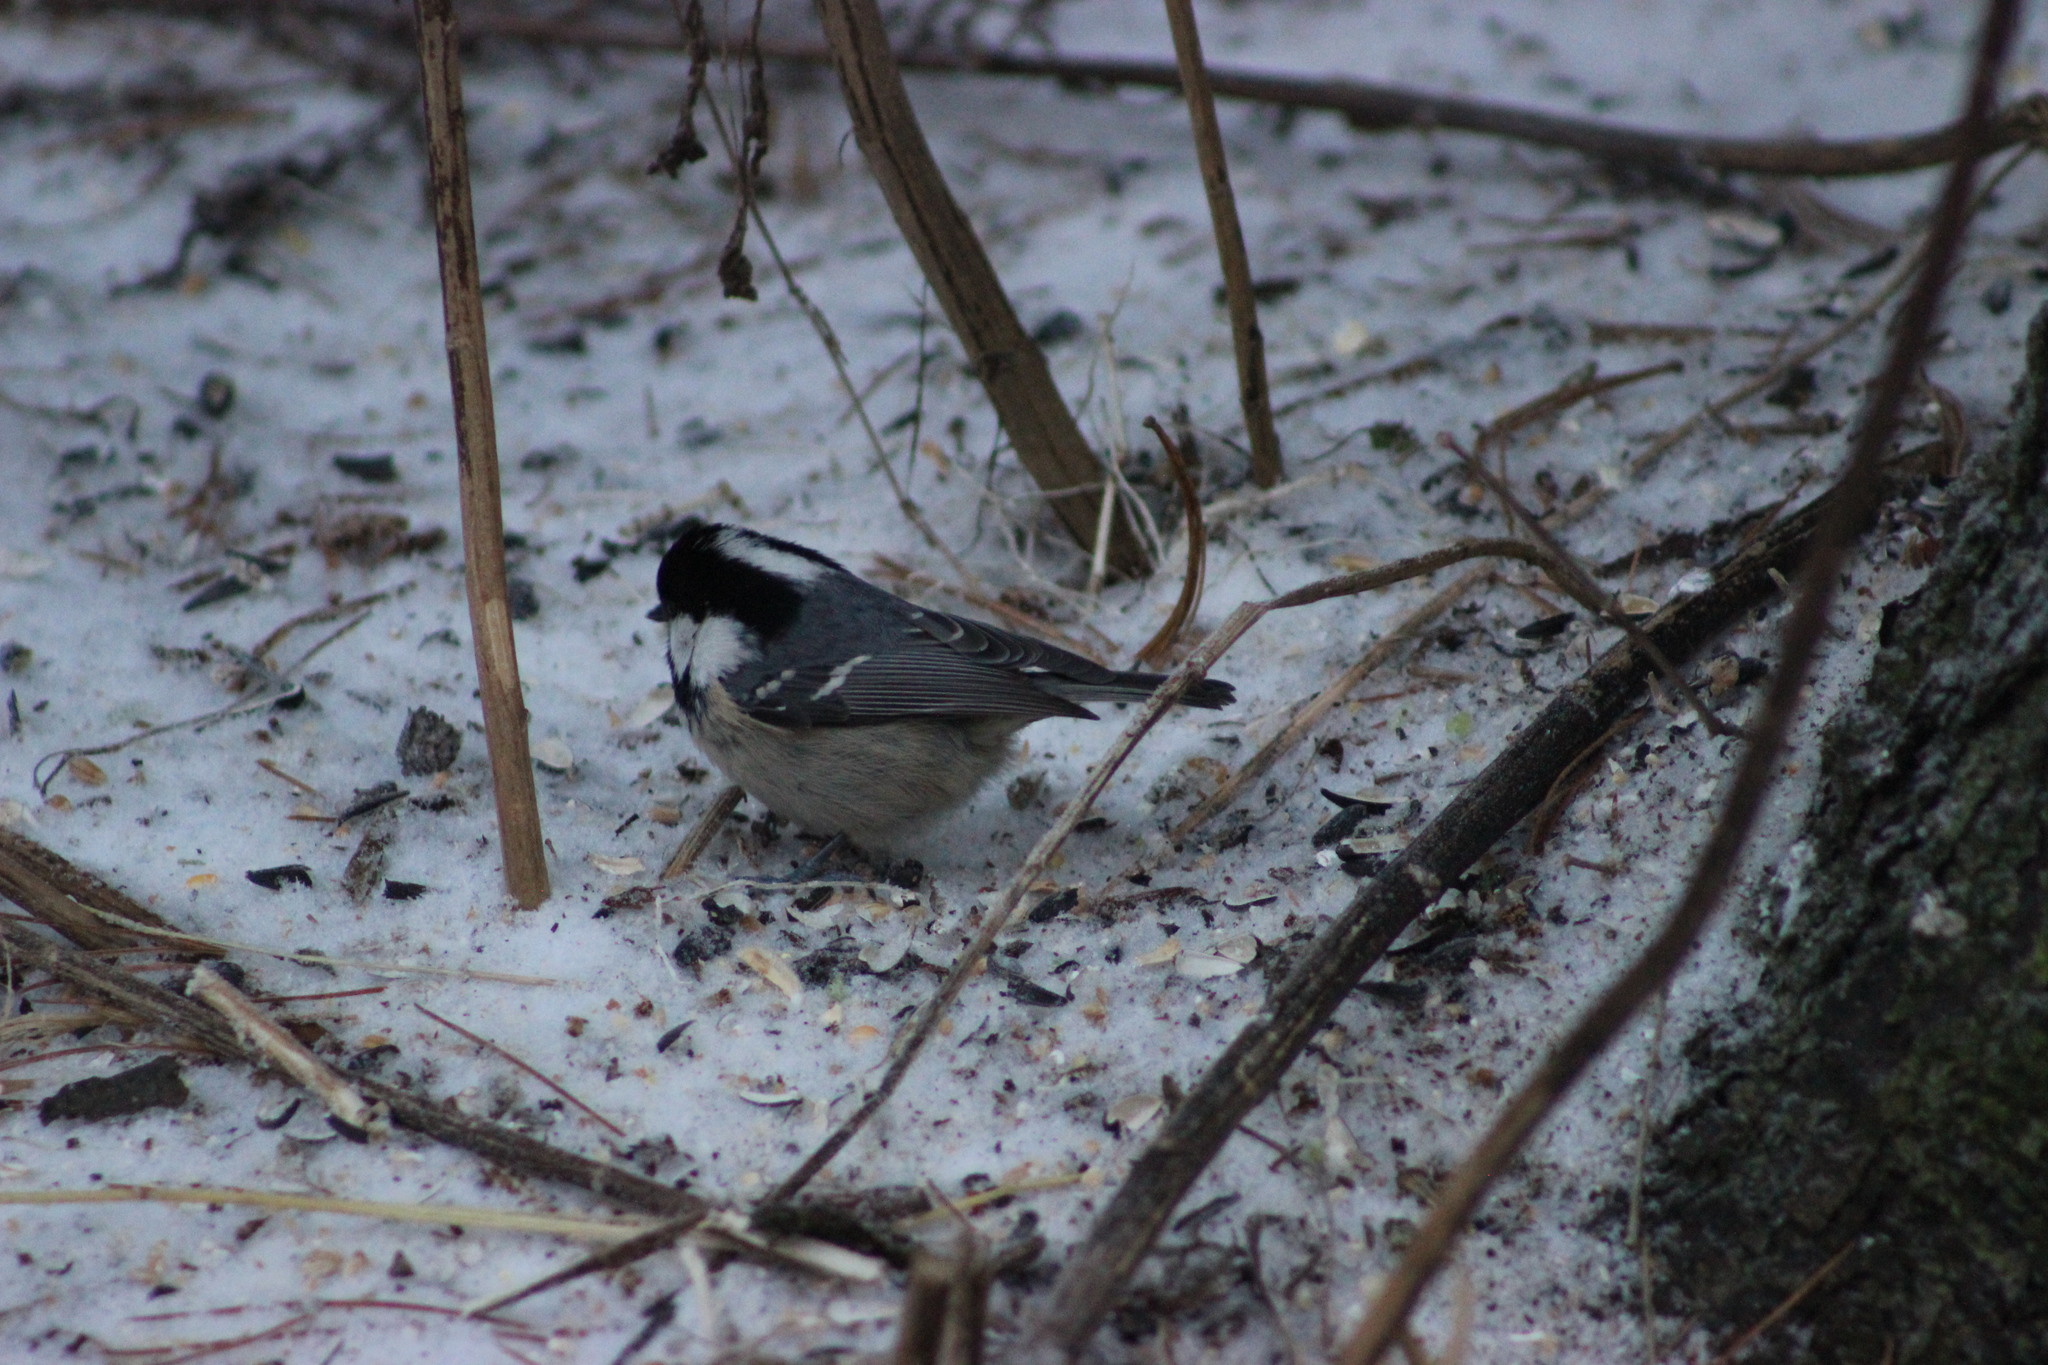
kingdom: Animalia
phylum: Chordata
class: Aves
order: Passeriformes
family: Paridae
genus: Periparus
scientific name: Periparus ater
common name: Coal tit
